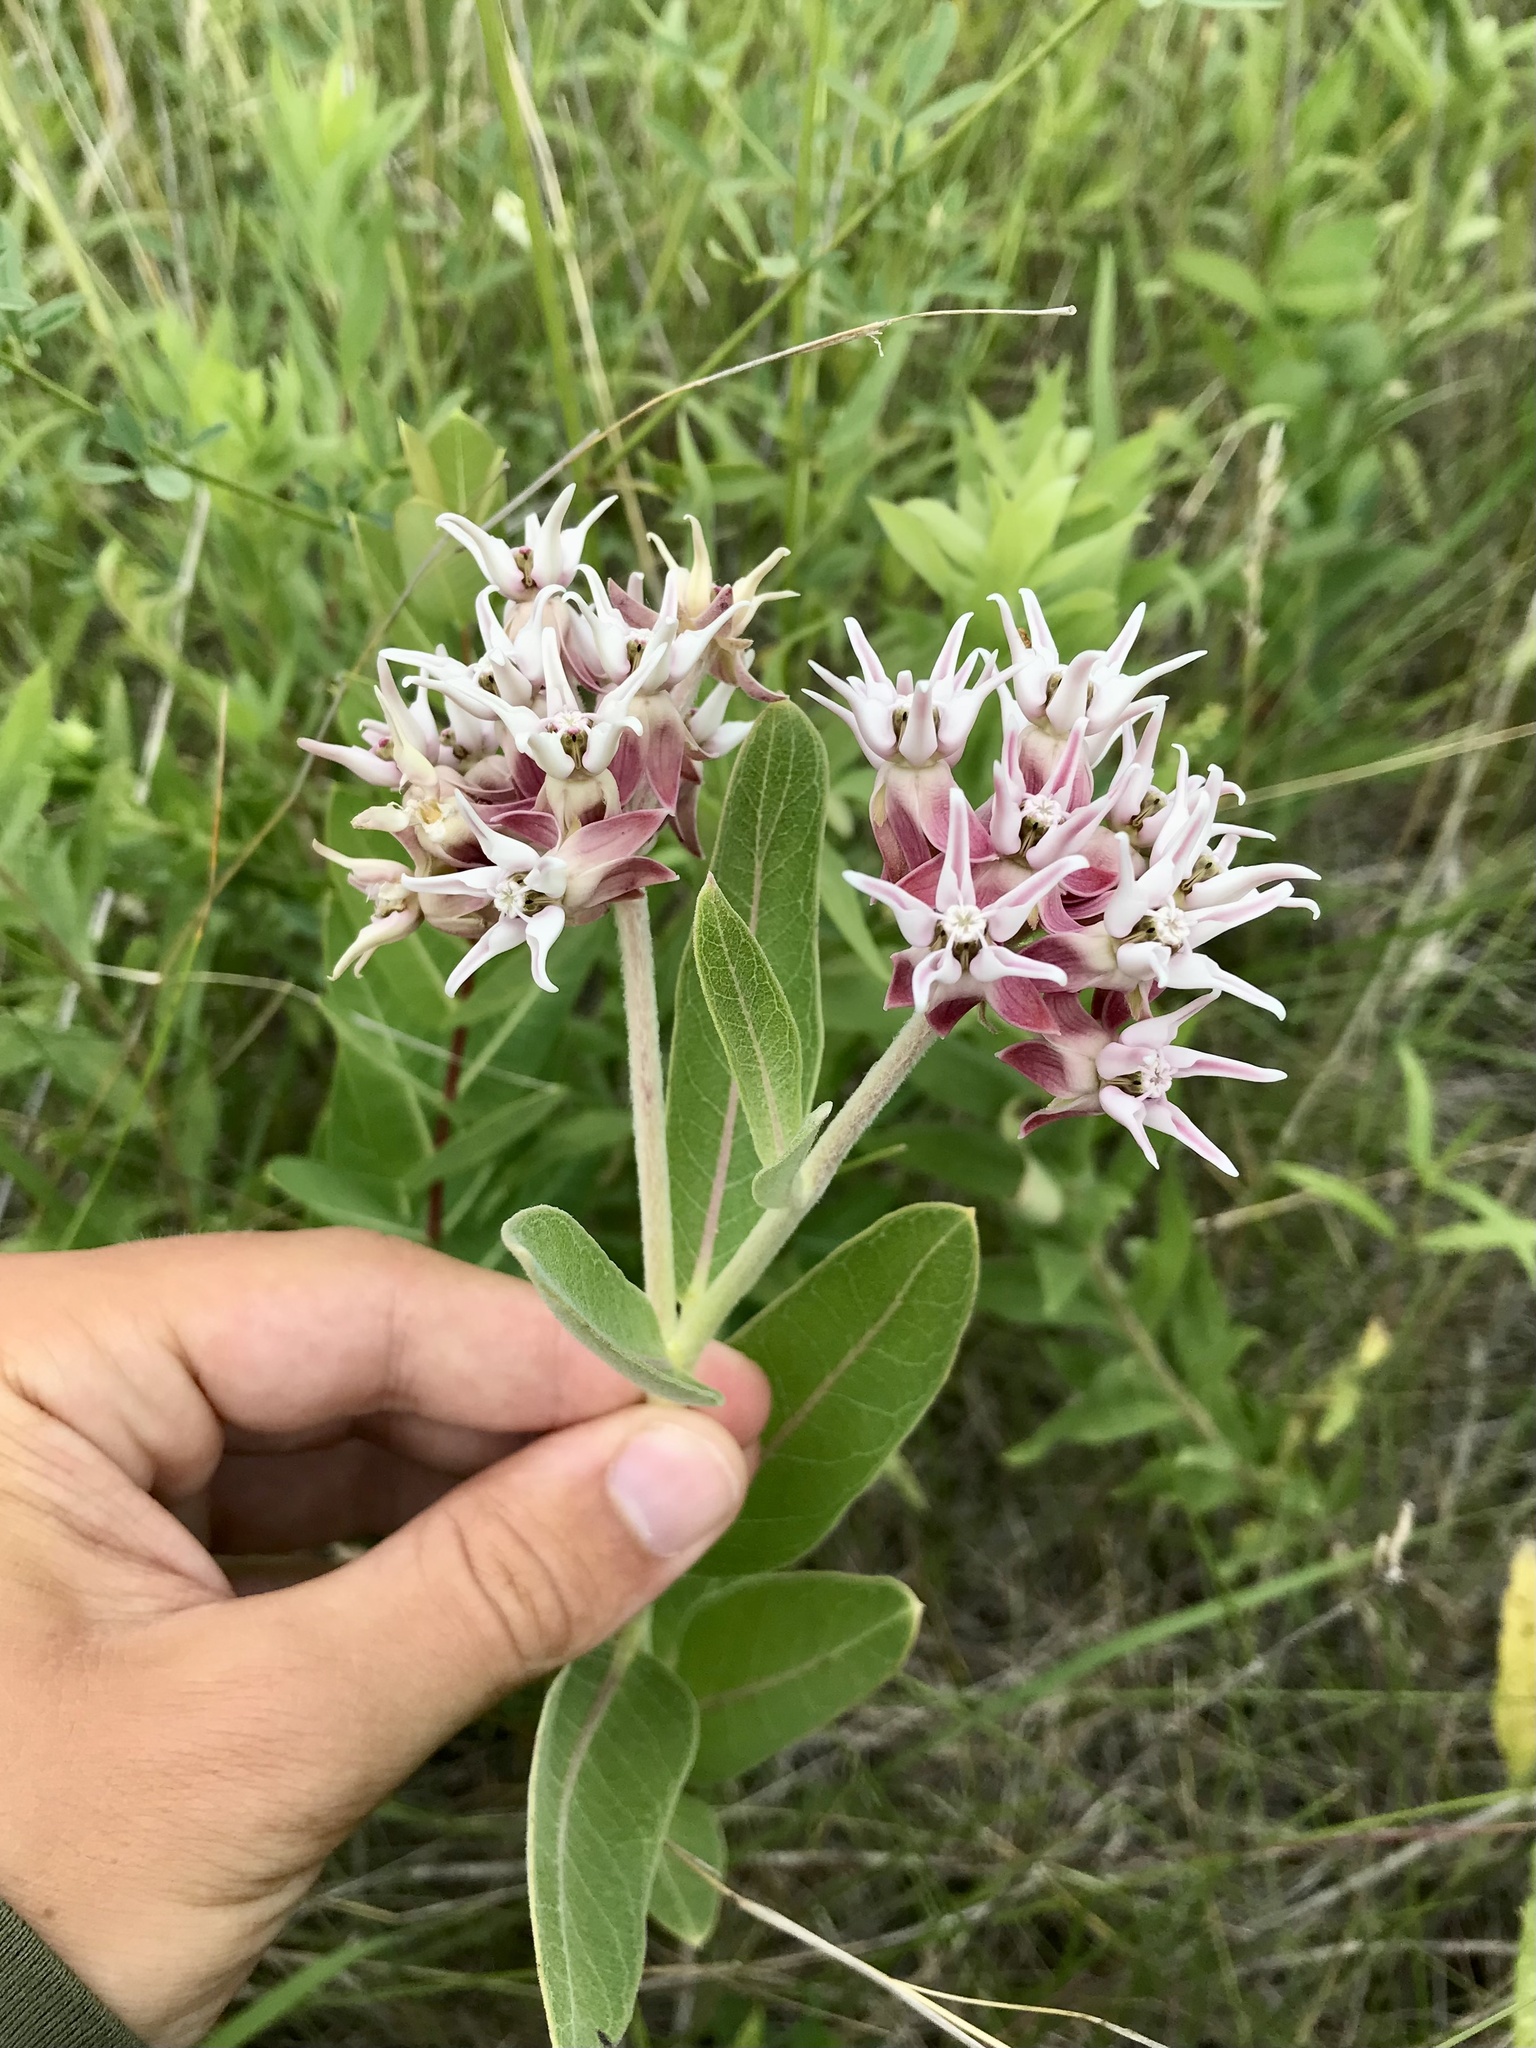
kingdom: Plantae
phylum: Tracheophyta
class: Magnoliopsida
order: Gentianales
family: Apocynaceae
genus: Asclepias
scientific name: Asclepias speciosa
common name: Showy milkweed
